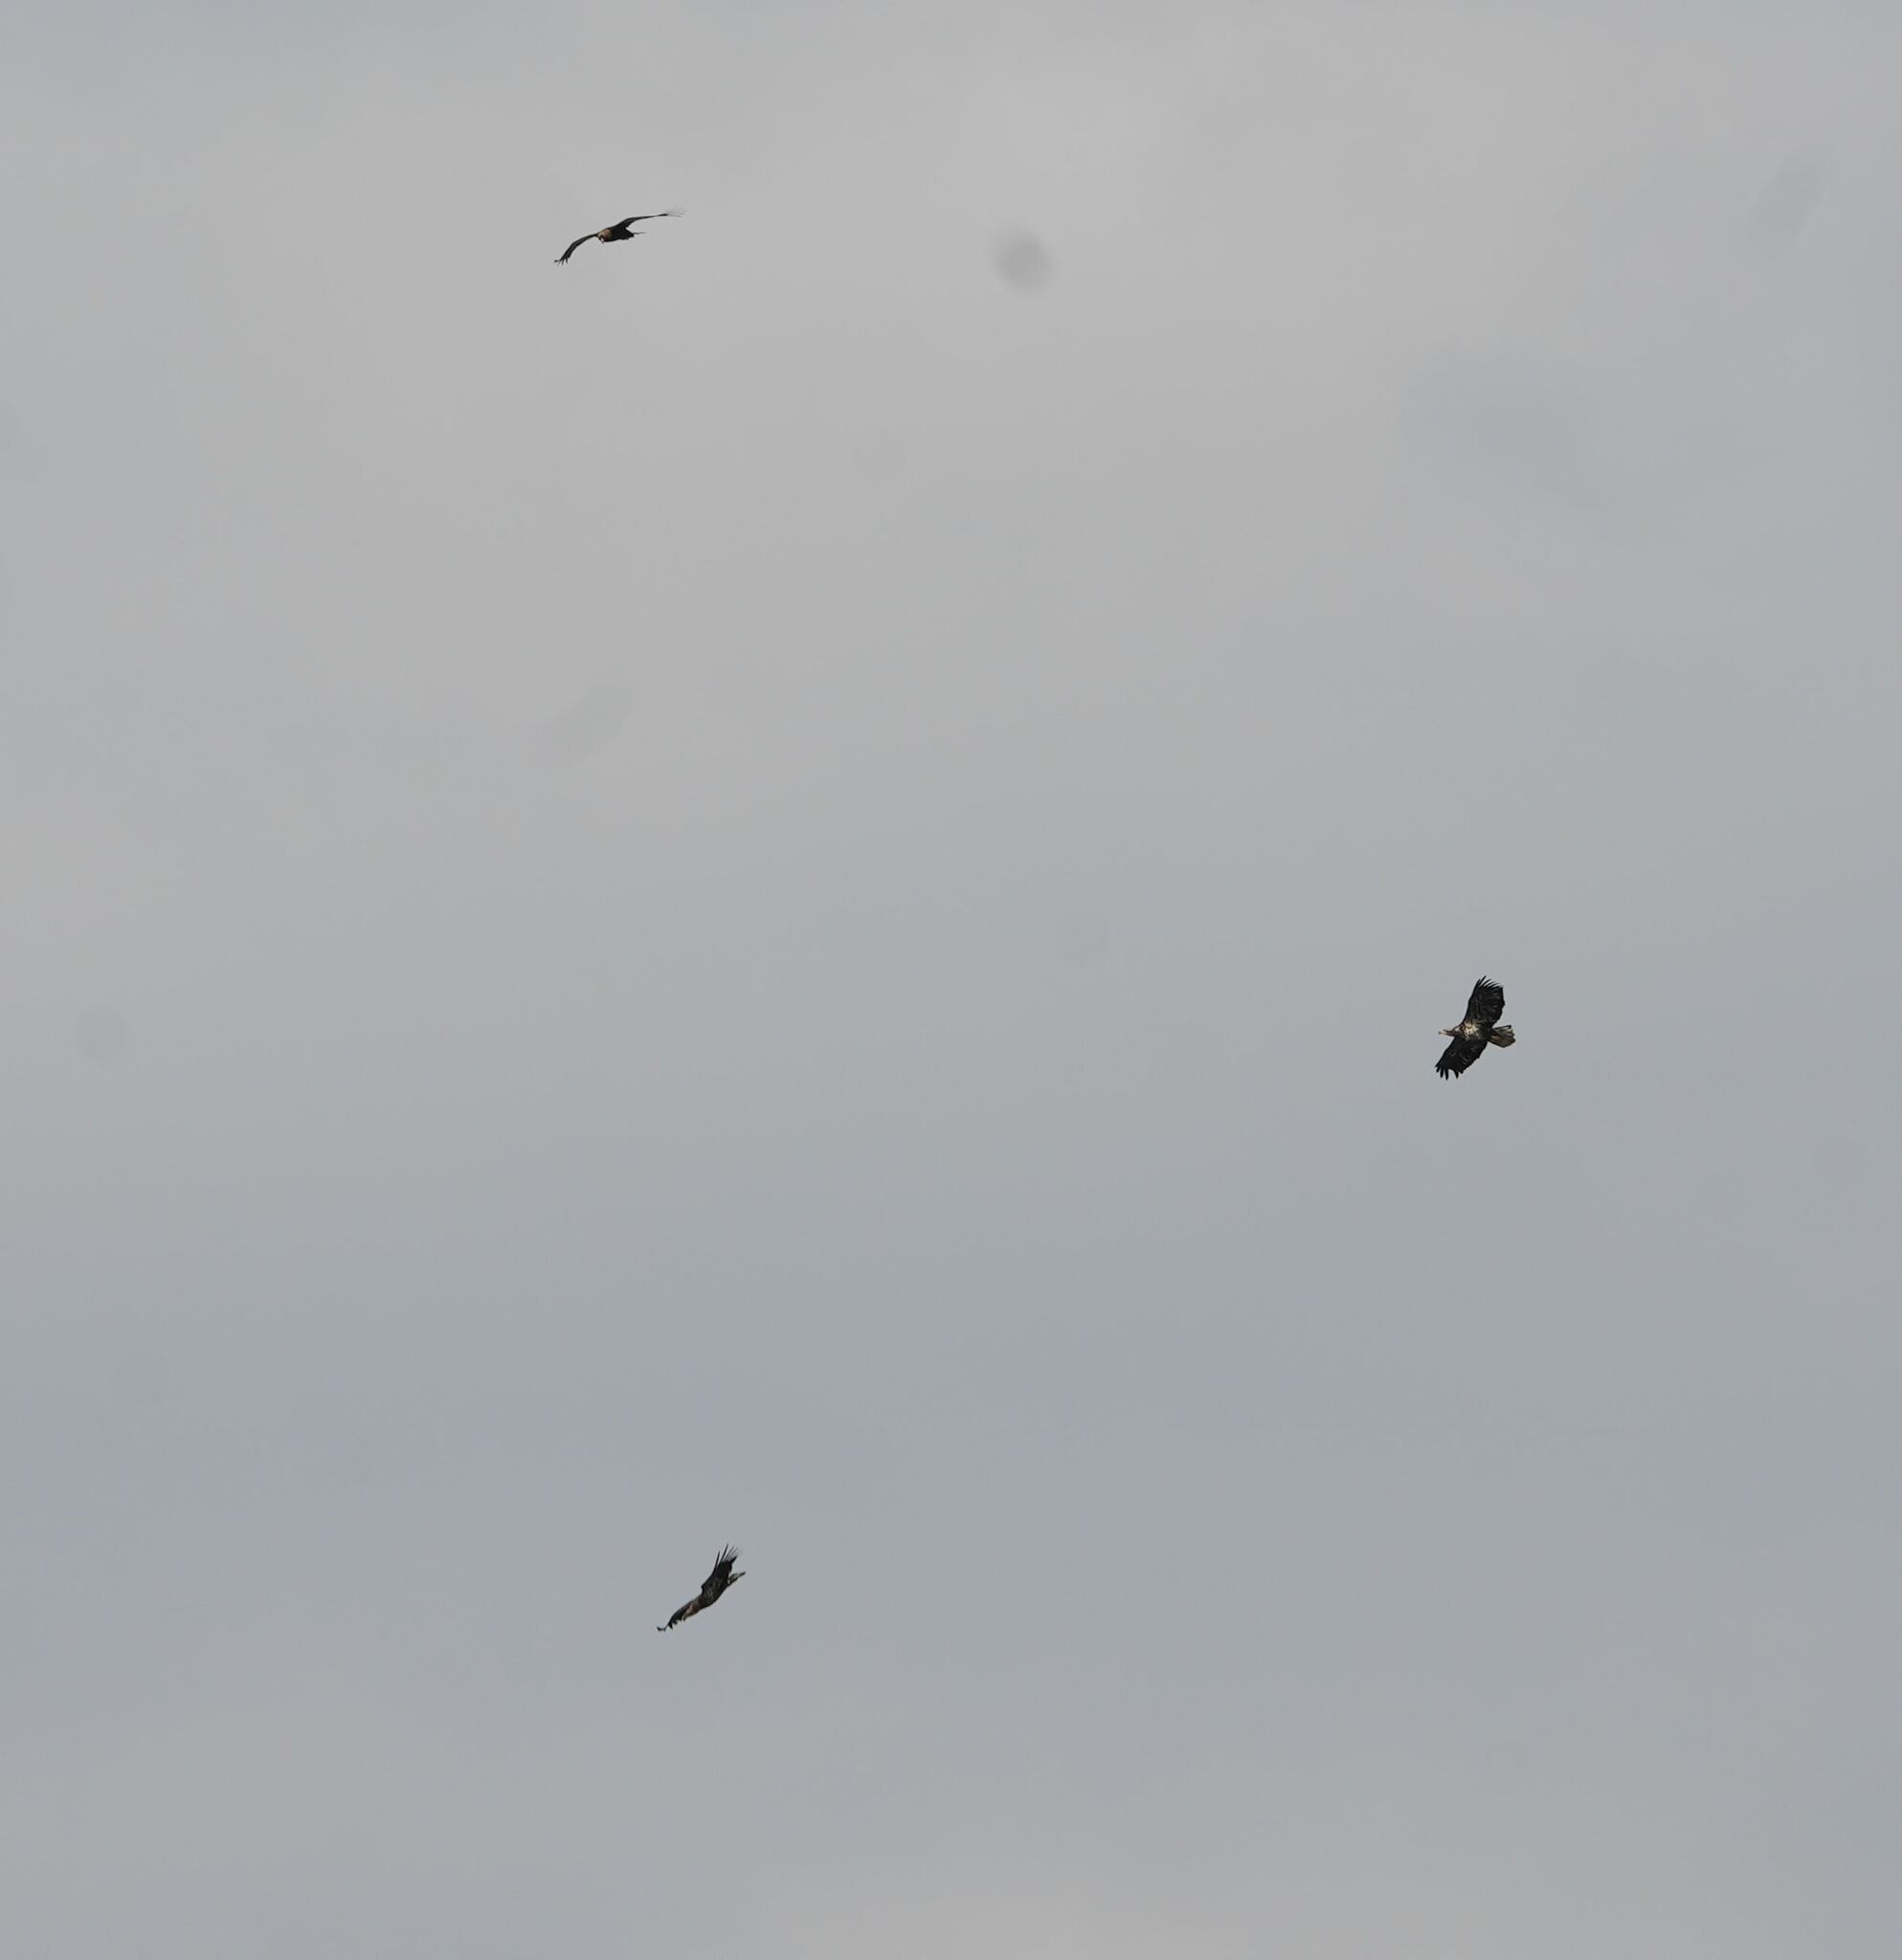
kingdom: Animalia
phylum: Chordata
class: Aves
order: Accipitriformes
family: Accipitridae
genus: Haliaeetus
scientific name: Haliaeetus leucocephalus
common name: Bald eagle
